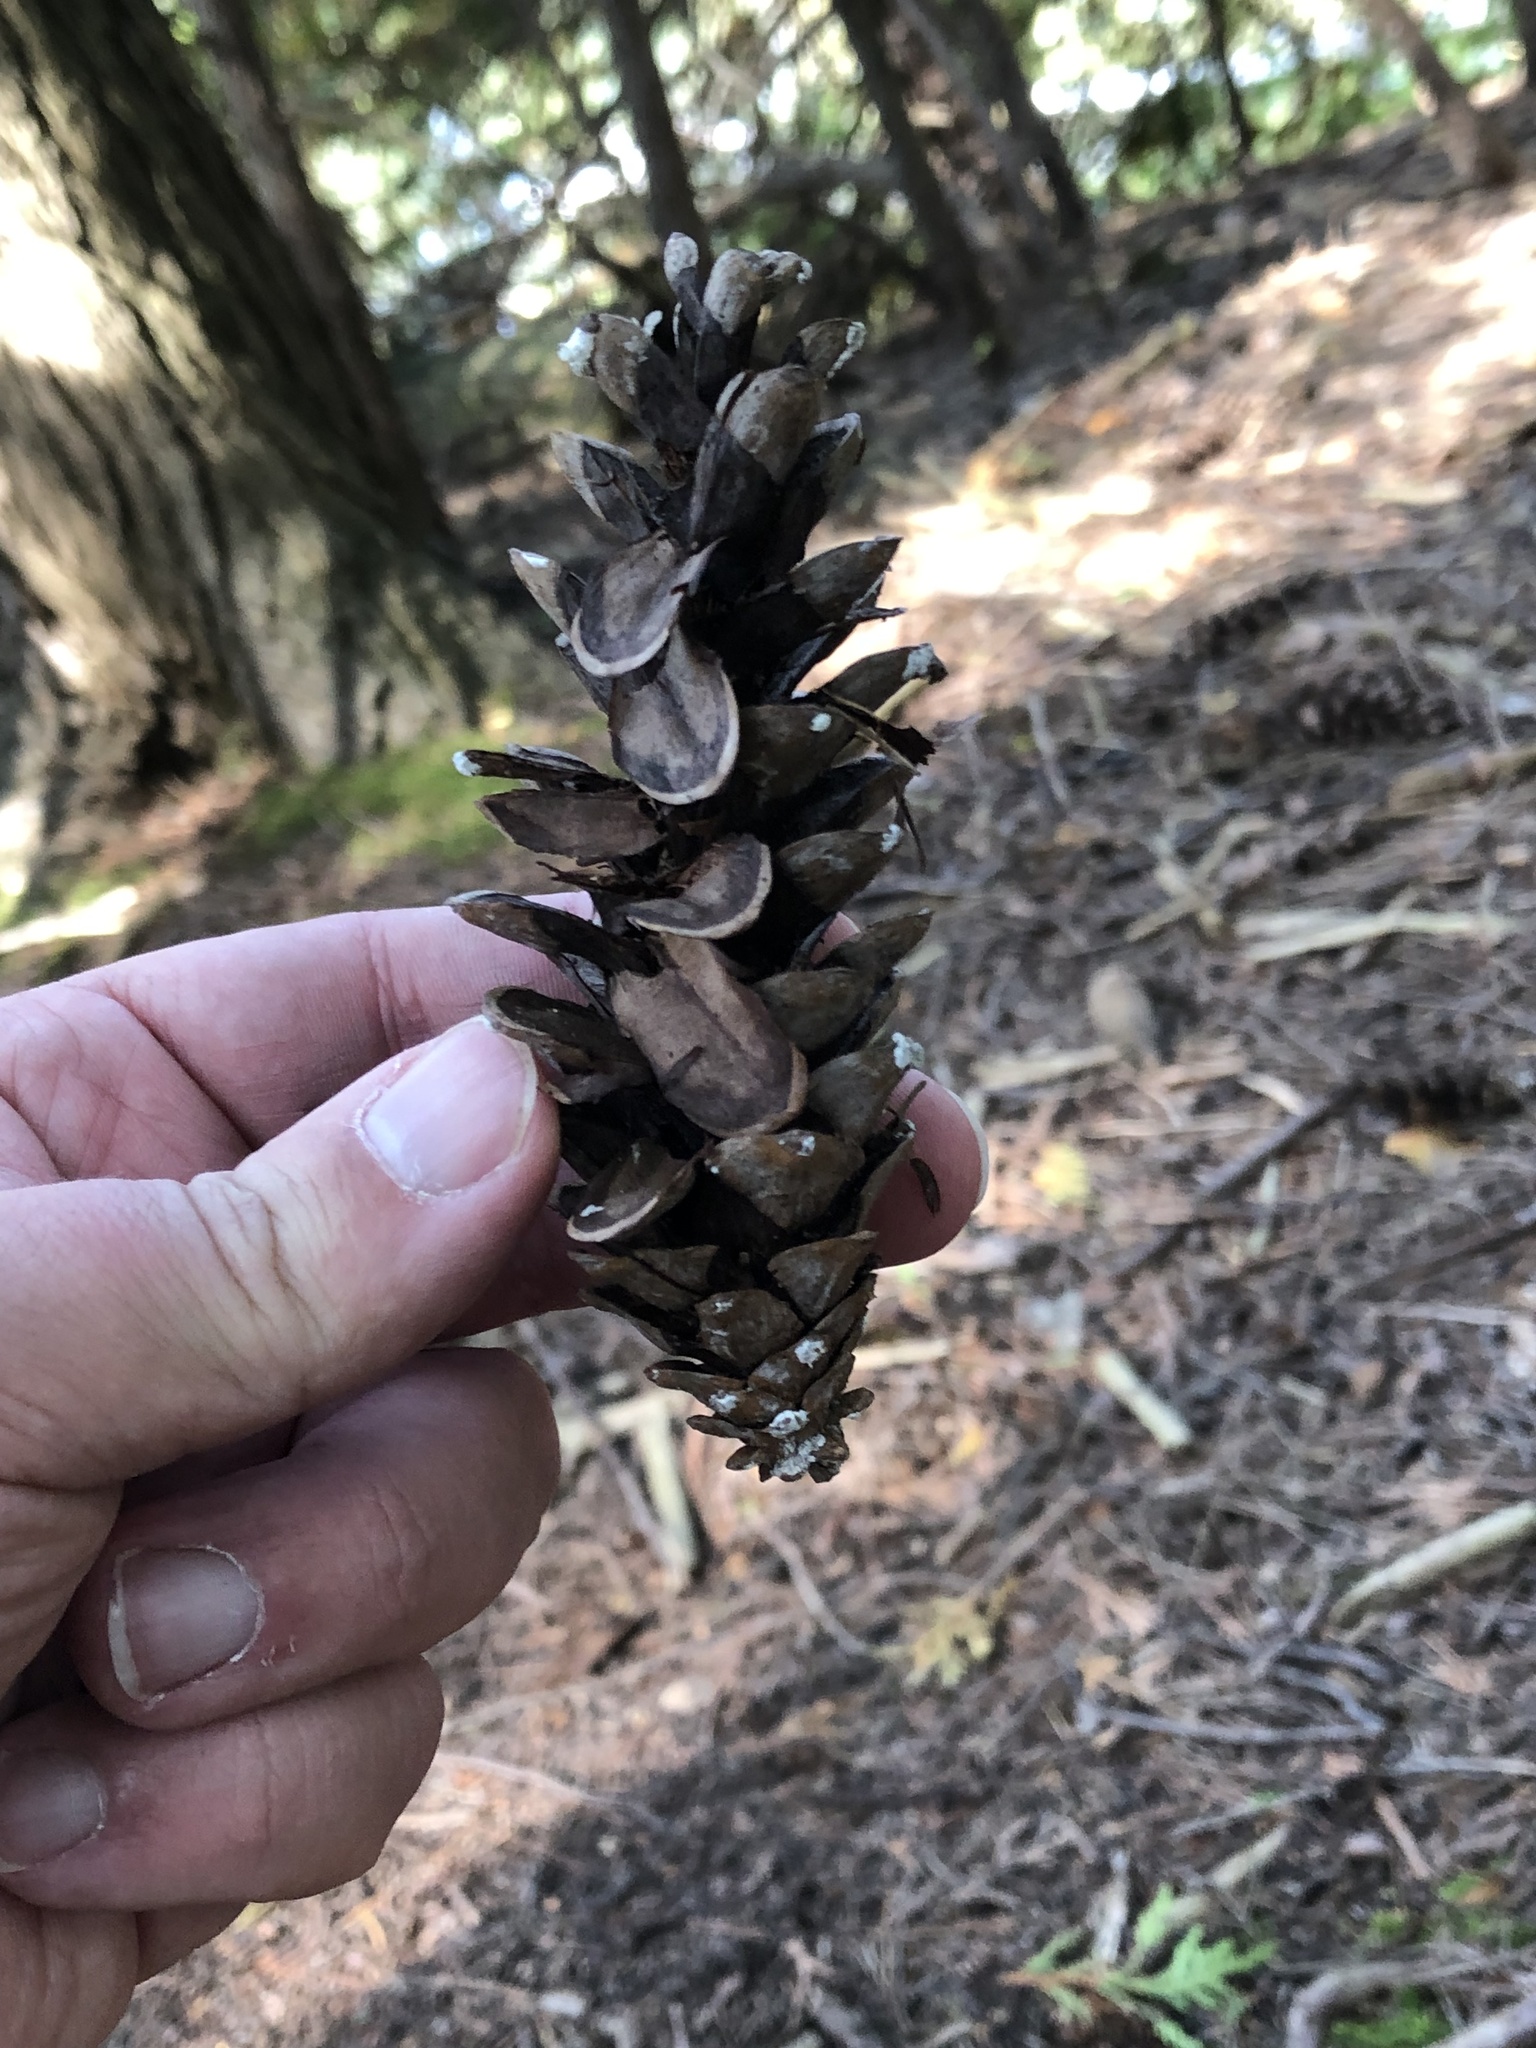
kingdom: Plantae
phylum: Tracheophyta
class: Pinopsida
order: Pinales
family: Pinaceae
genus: Pinus
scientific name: Pinus strobus
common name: Weymouth pine
